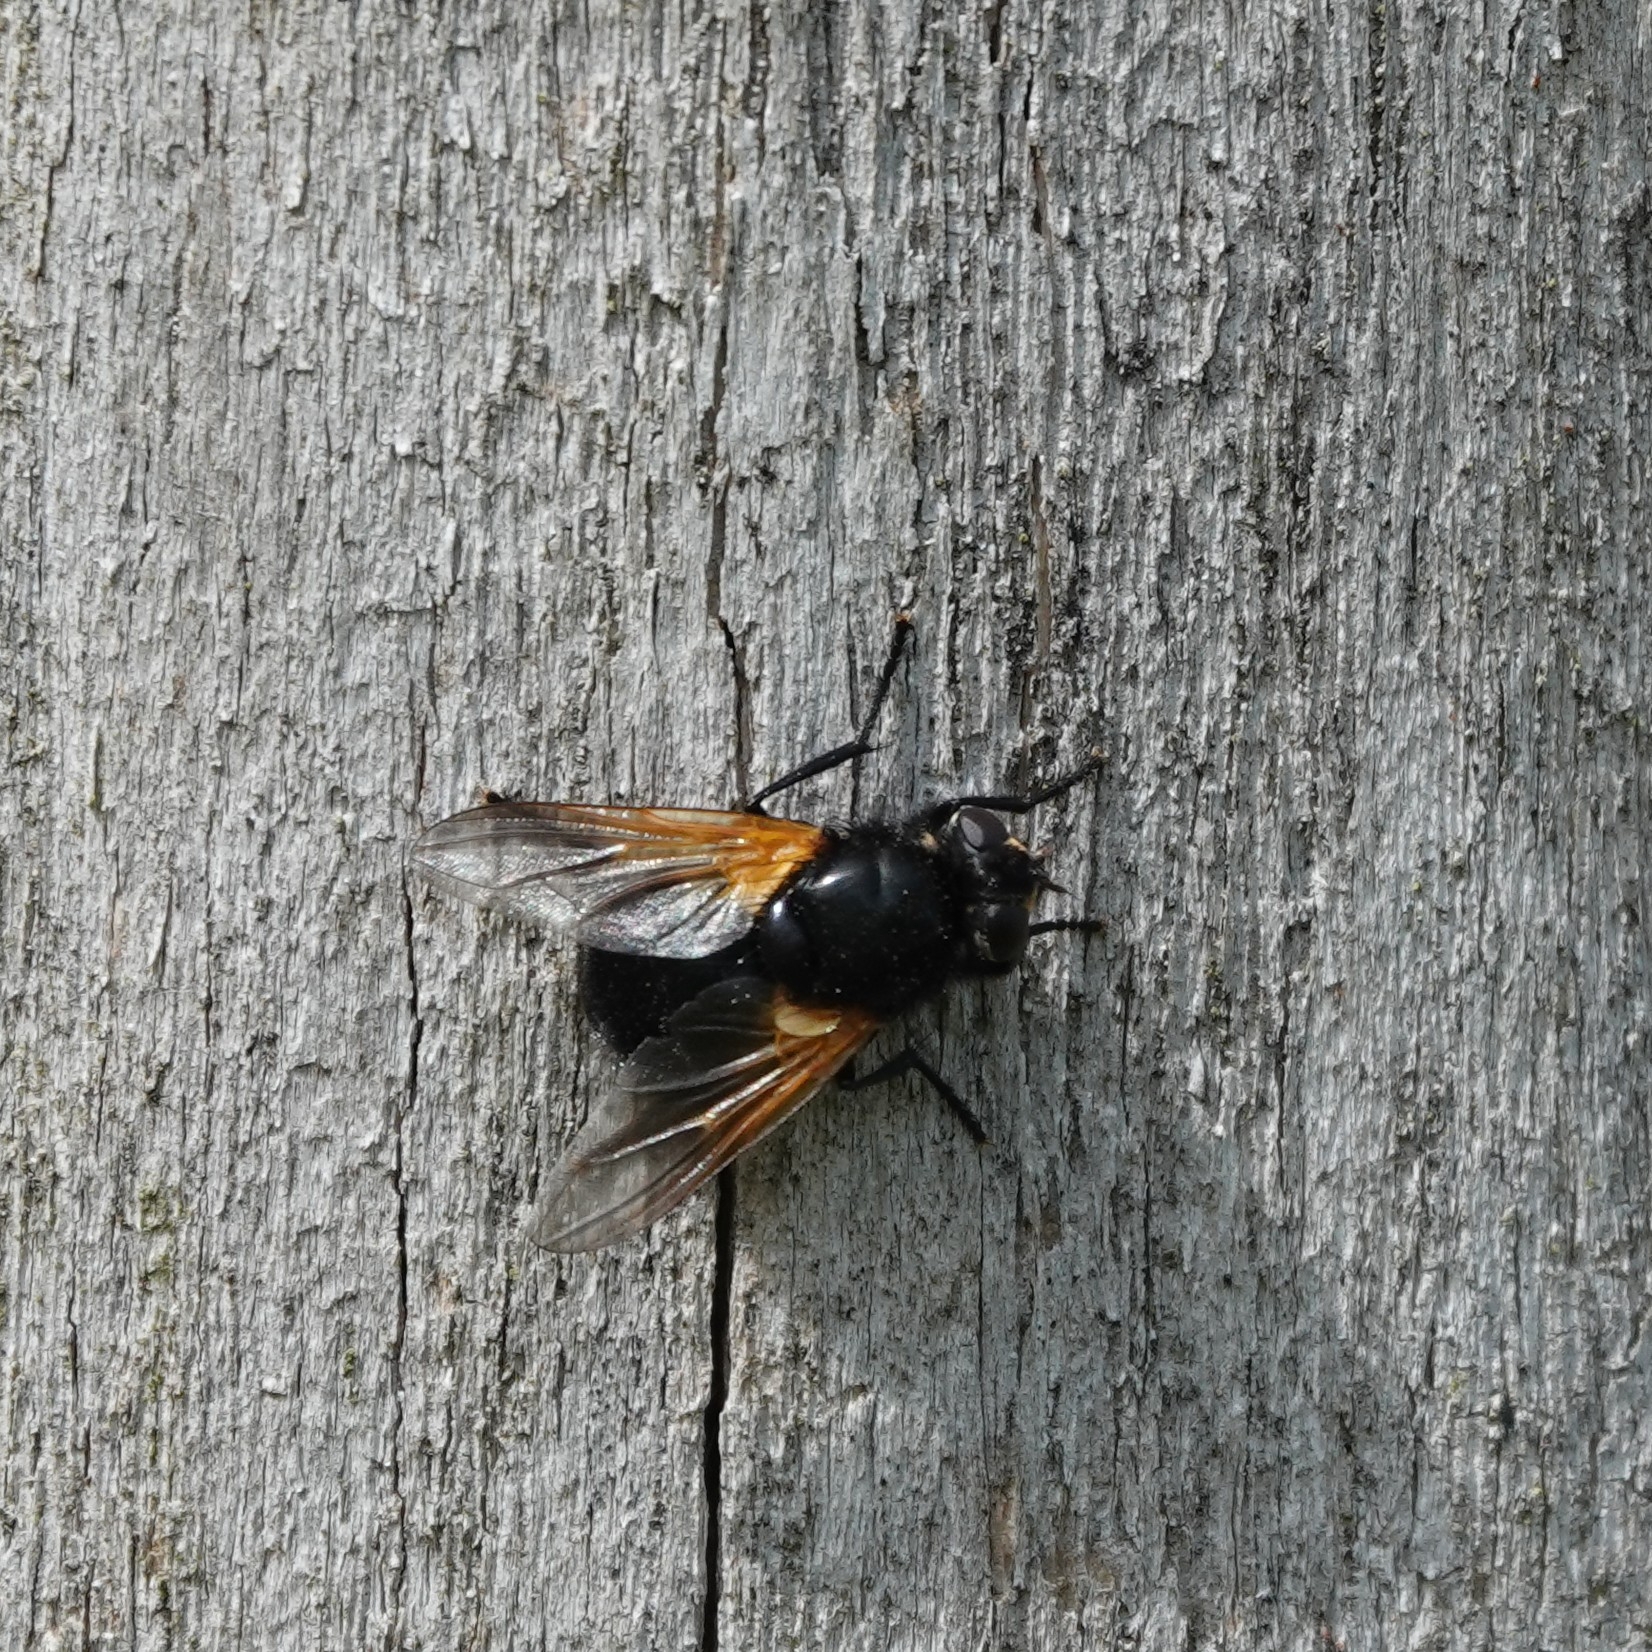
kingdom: Animalia
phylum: Arthropoda
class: Insecta
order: Diptera
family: Muscidae
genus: Mesembrina
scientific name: Mesembrina meridiana
